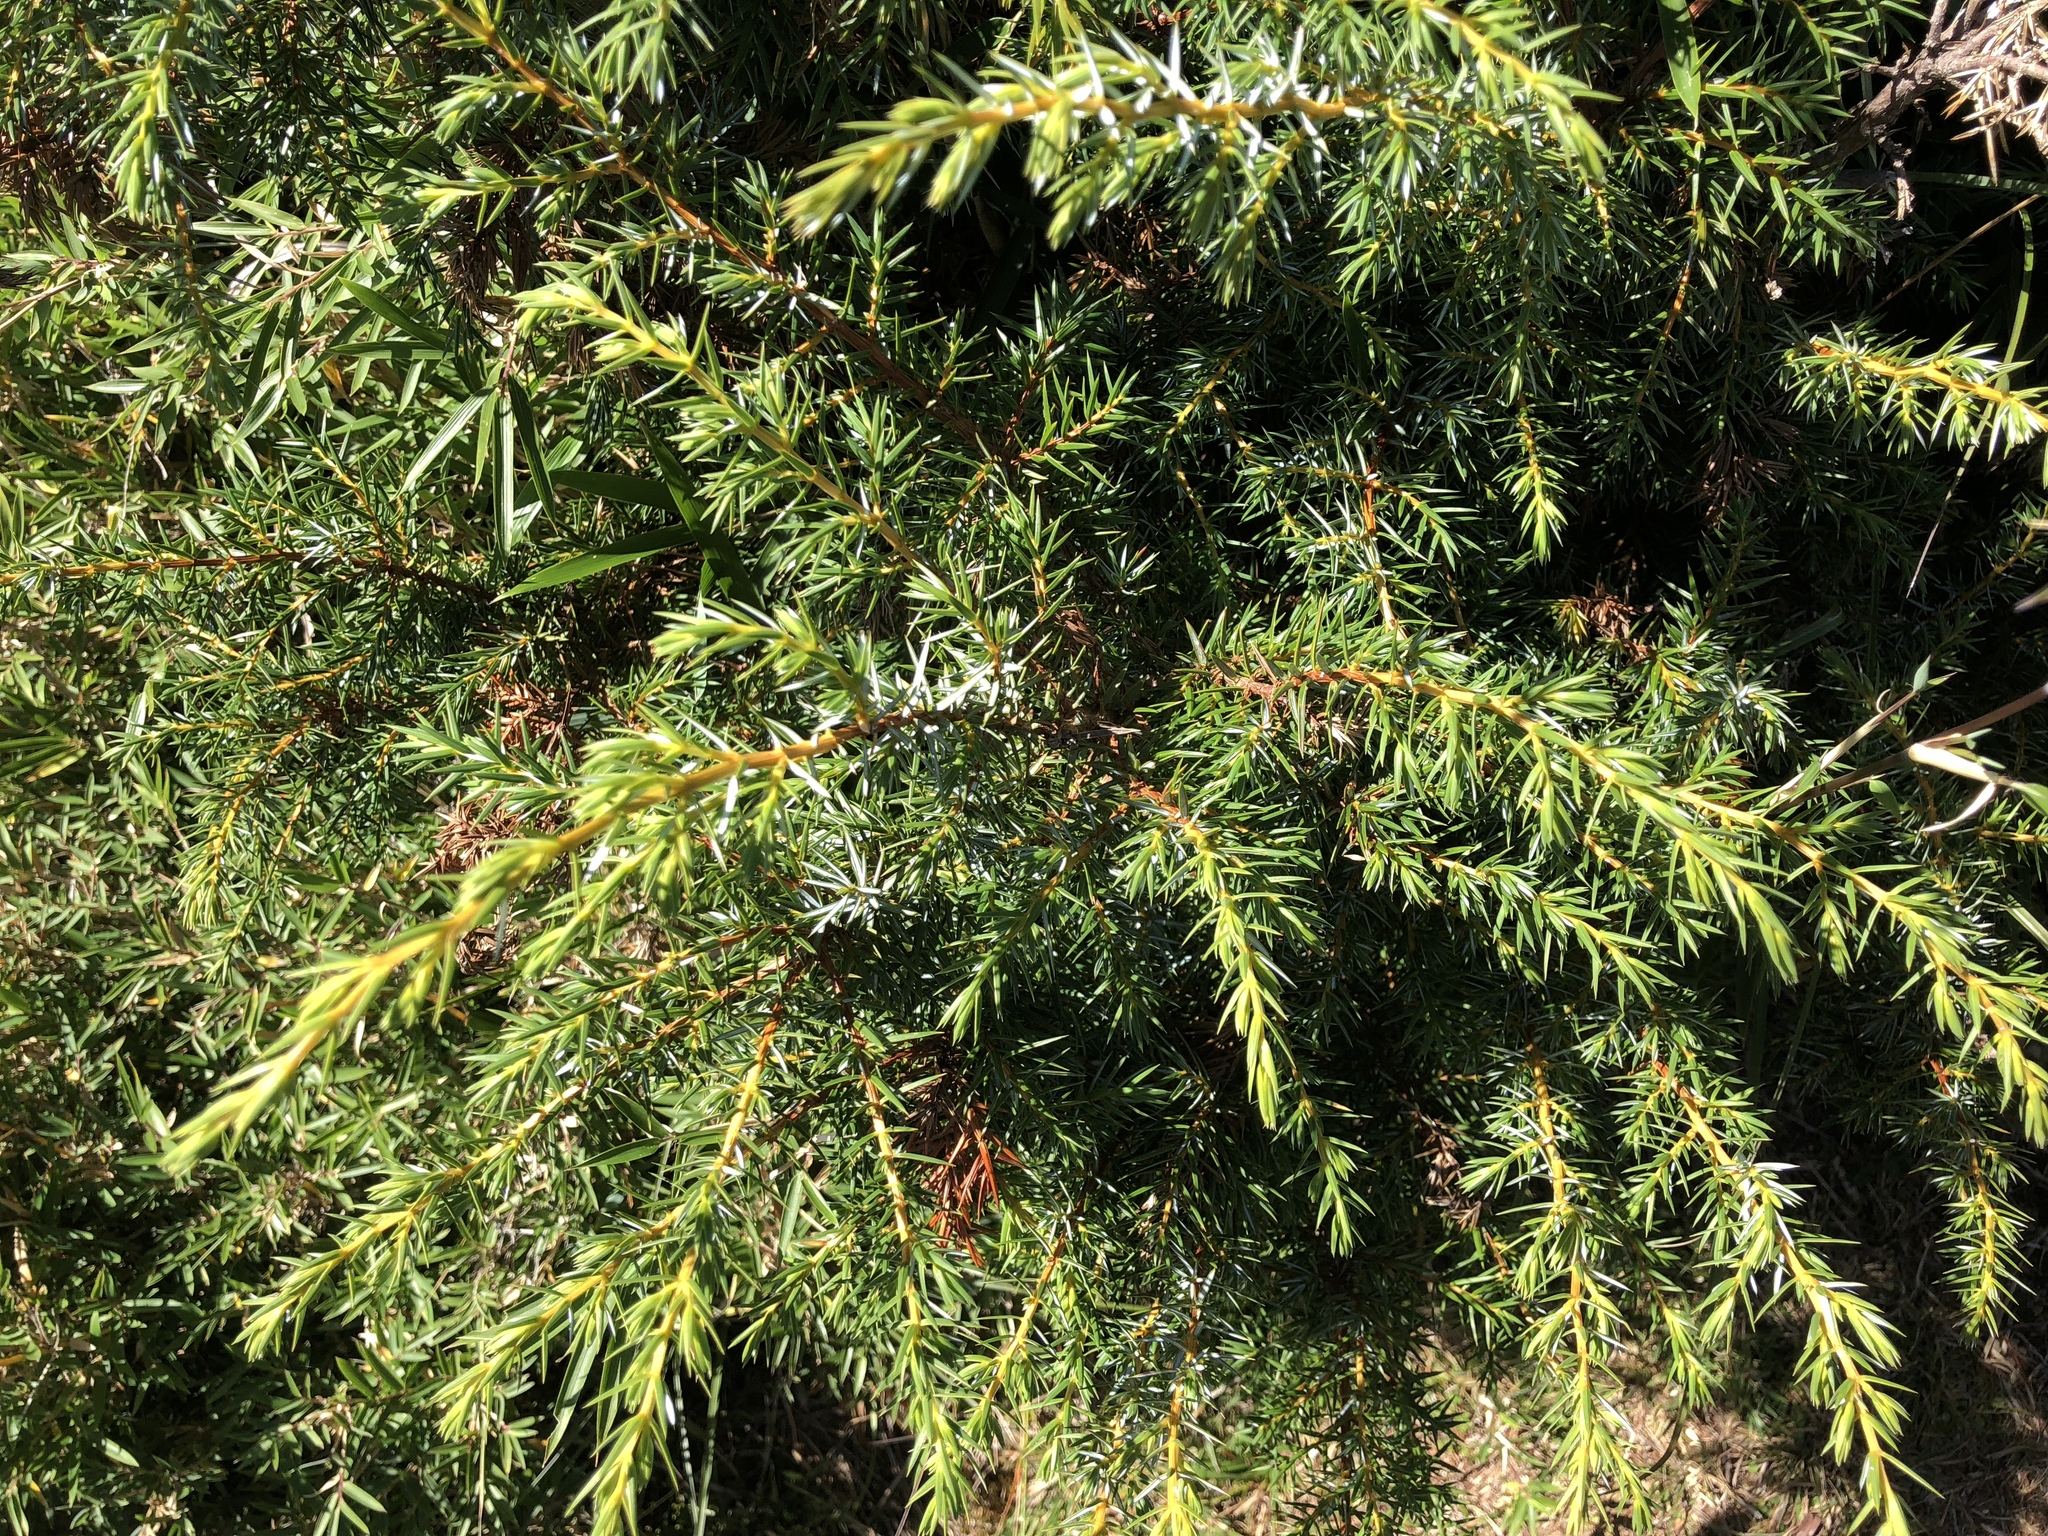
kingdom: Plantae
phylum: Tracheophyta
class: Pinopsida
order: Pinales
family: Cupressaceae
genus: Juniperus
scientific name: Juniperus formosana
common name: Formosan juniper
